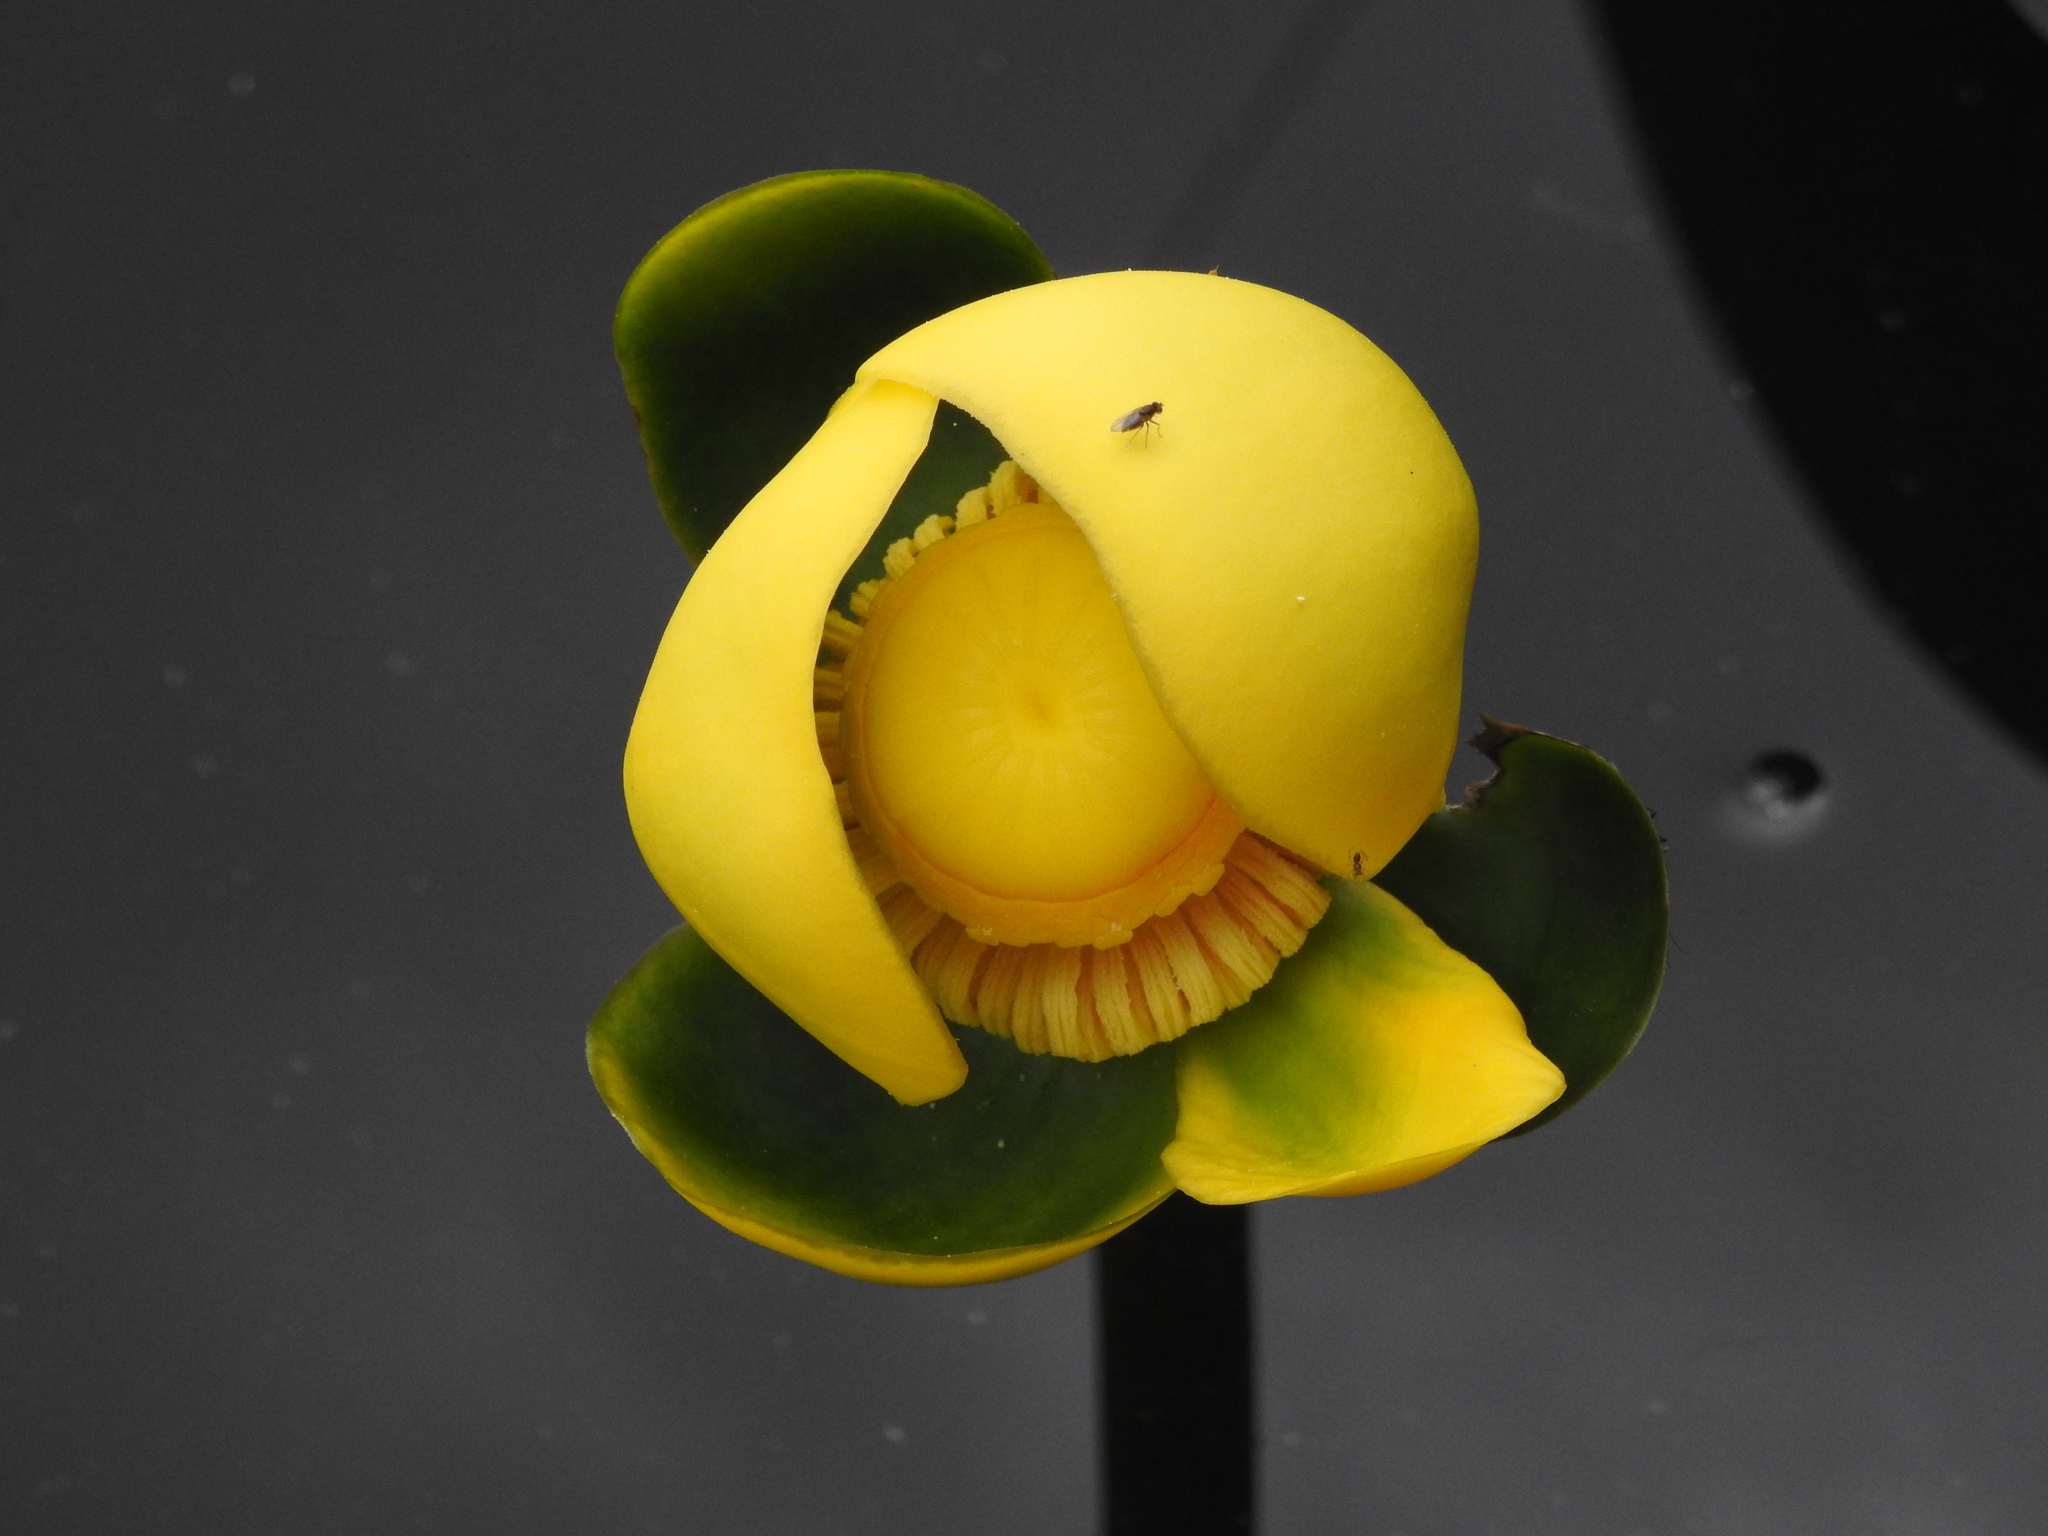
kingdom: Plantae
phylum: Tracheophyta
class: Magnoliopsida
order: Nymphaeales
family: Nymphaeaceae
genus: Nuphar
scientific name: Nuphar advena
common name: Spatter-dock
